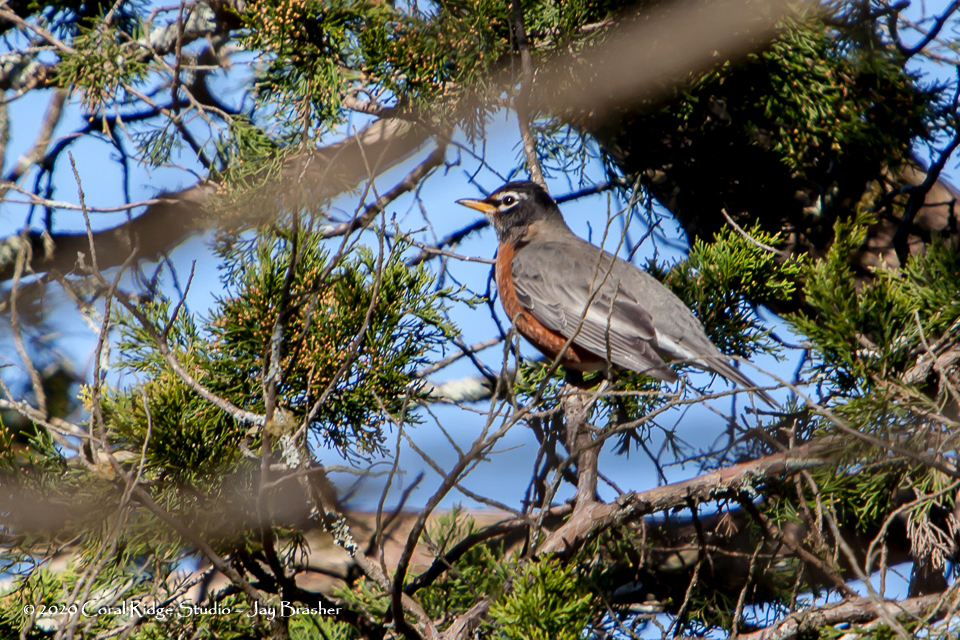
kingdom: Animalia
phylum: Chordata
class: Aves
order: Passeriformes
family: Turdidae
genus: Turdus
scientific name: Turdus migratorius
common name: American robin
